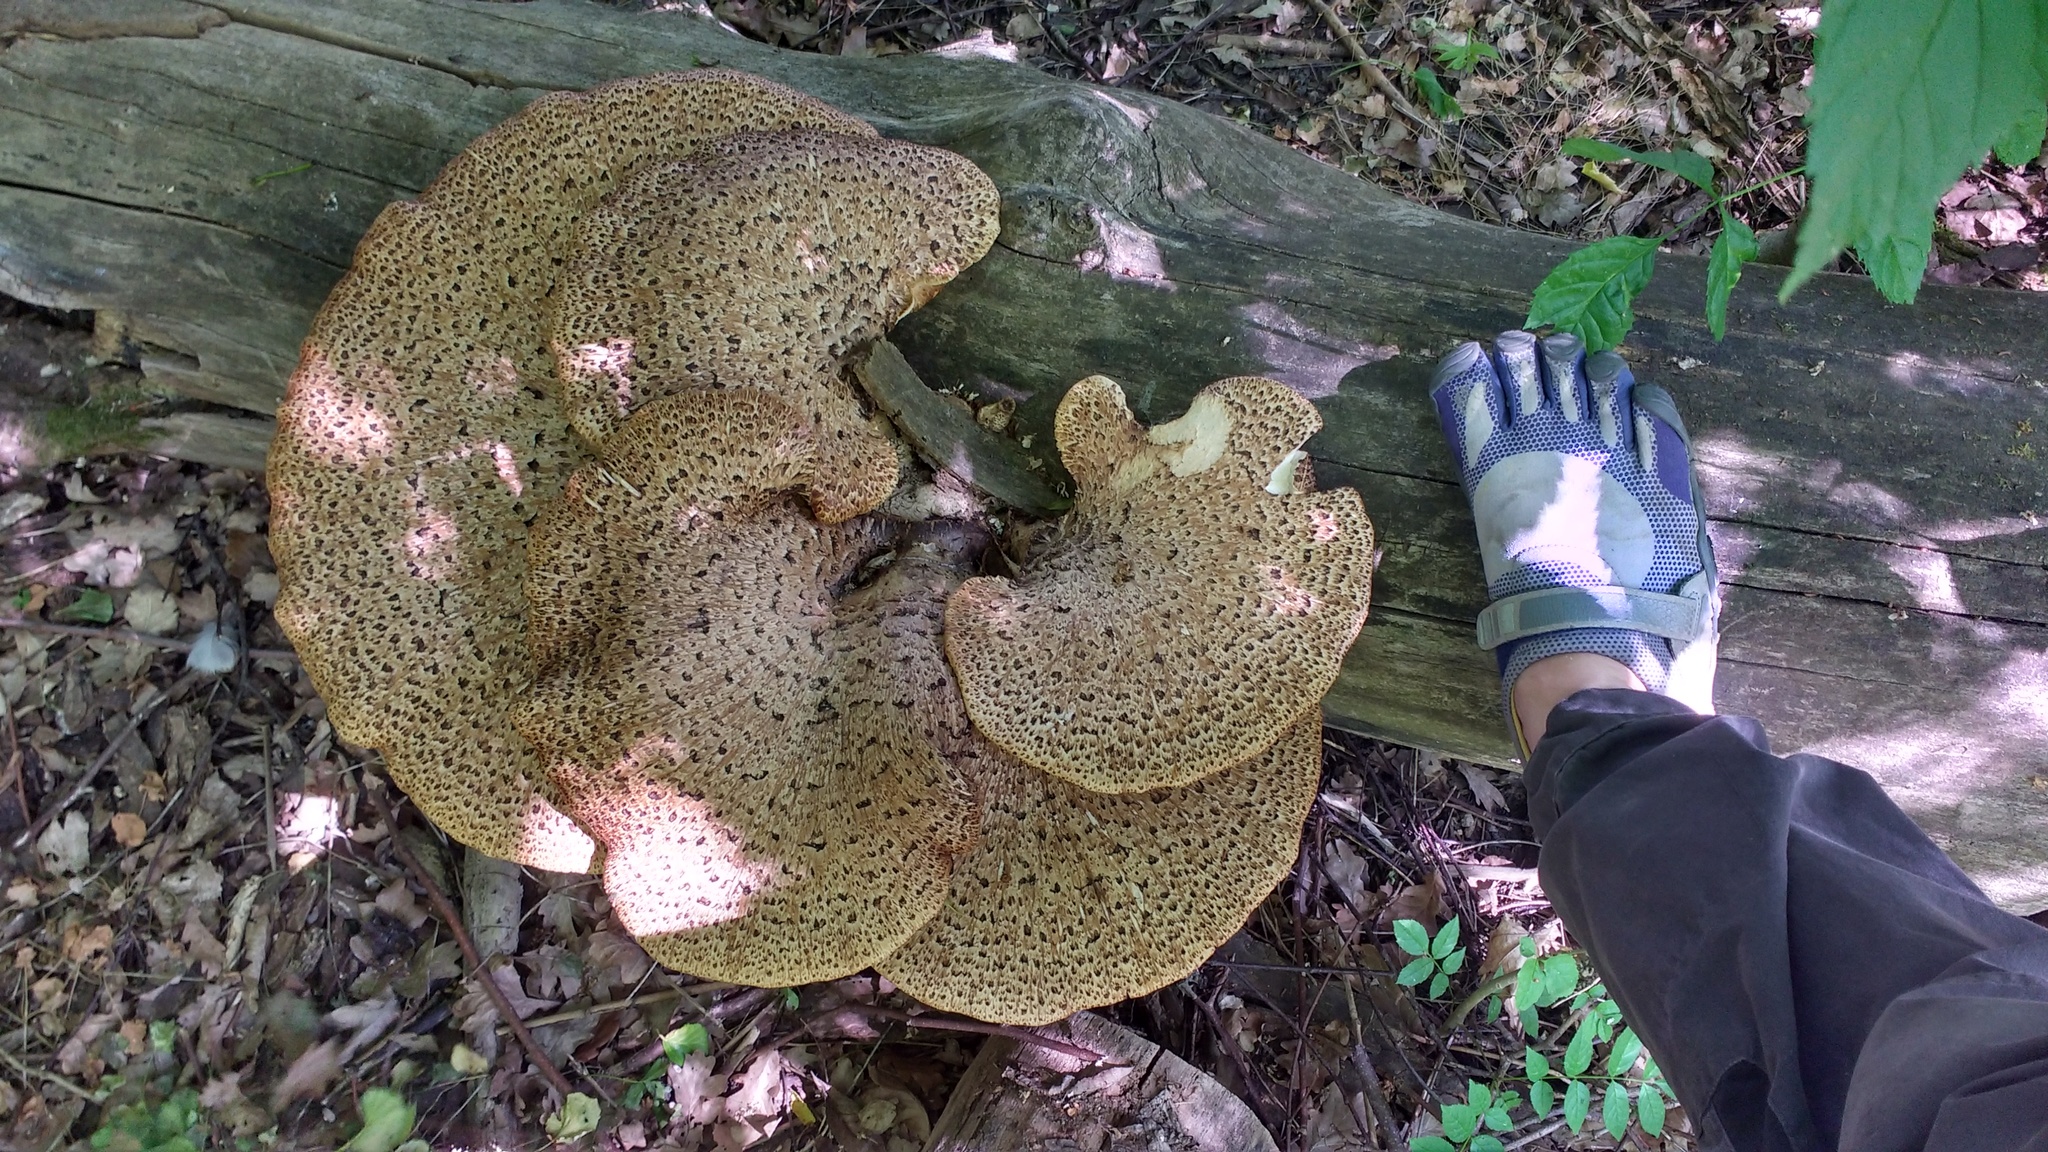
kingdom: Fungi
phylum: Basidiomycota
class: Agaricomycetes
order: Polyporales
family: Polyporaceae
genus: Cerioporus
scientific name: Cerioporus squamosus
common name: Dryad's saddle
